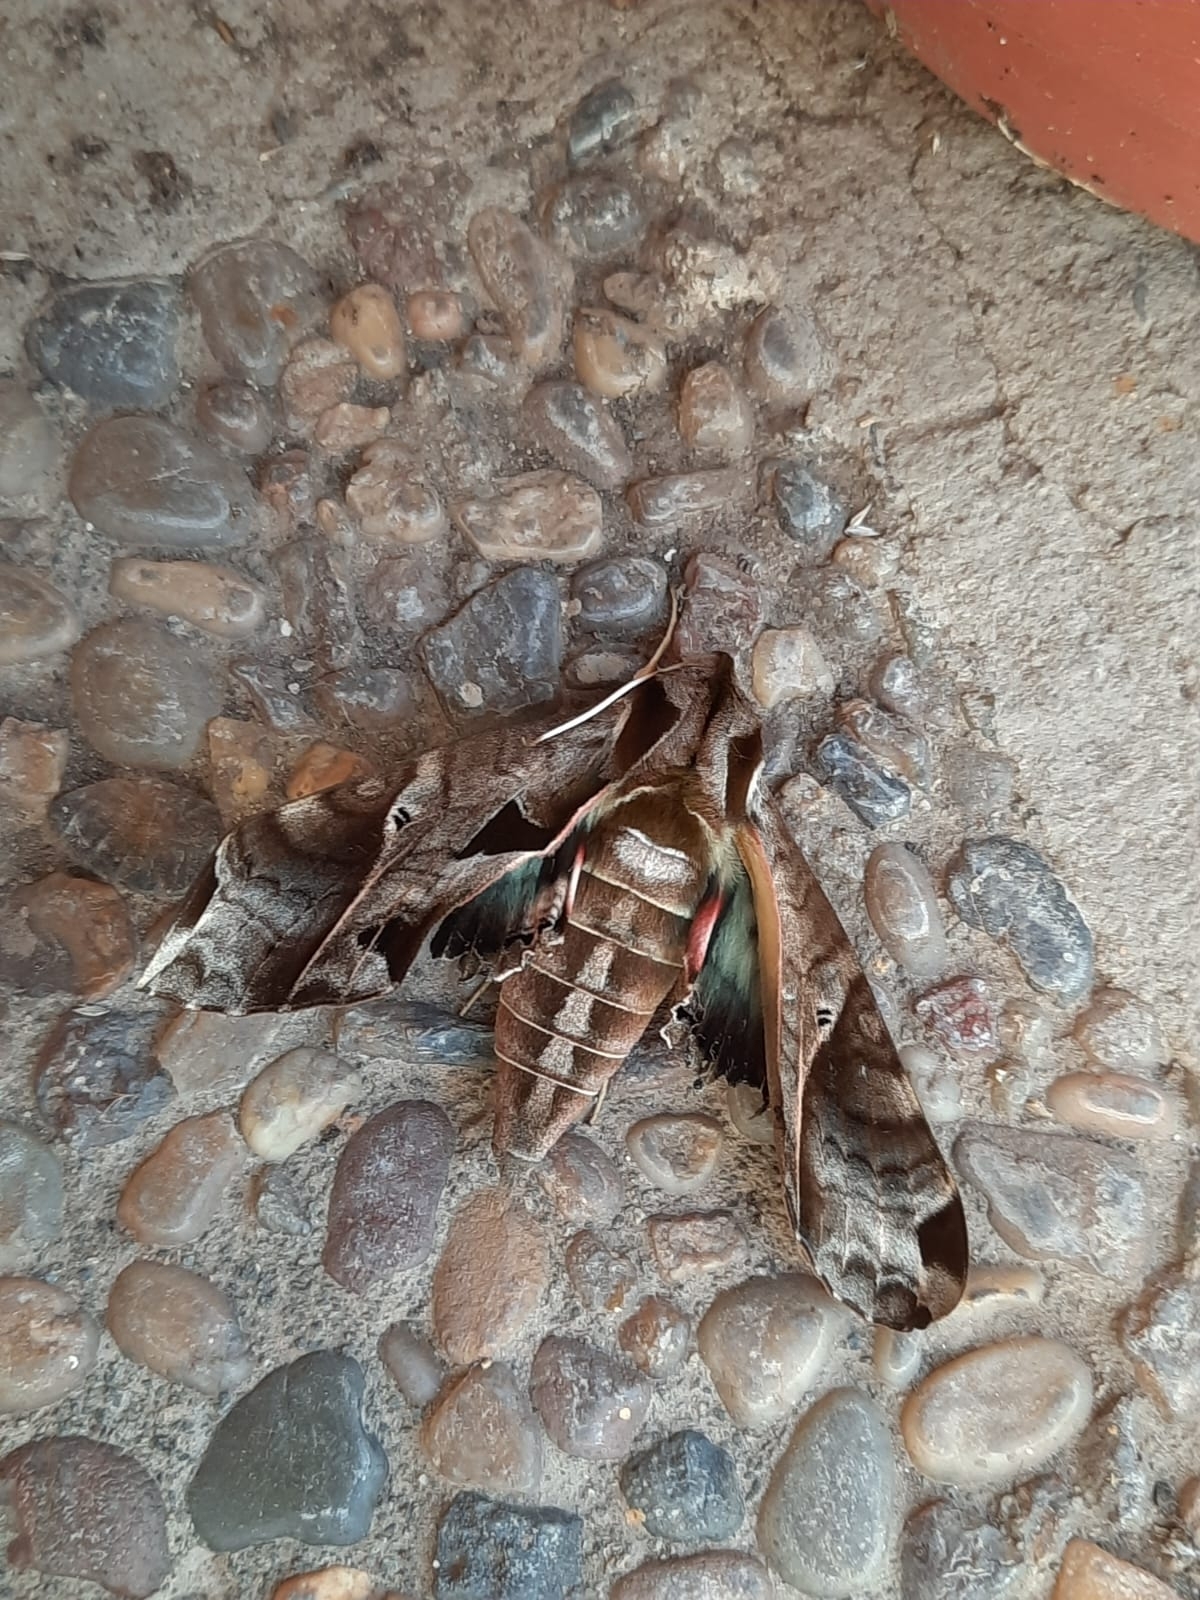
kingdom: Animalia
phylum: Arthropoda
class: Insecta
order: Lepidoptera
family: Sphingidae
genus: Eumorpha
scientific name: Eumorpha analis
